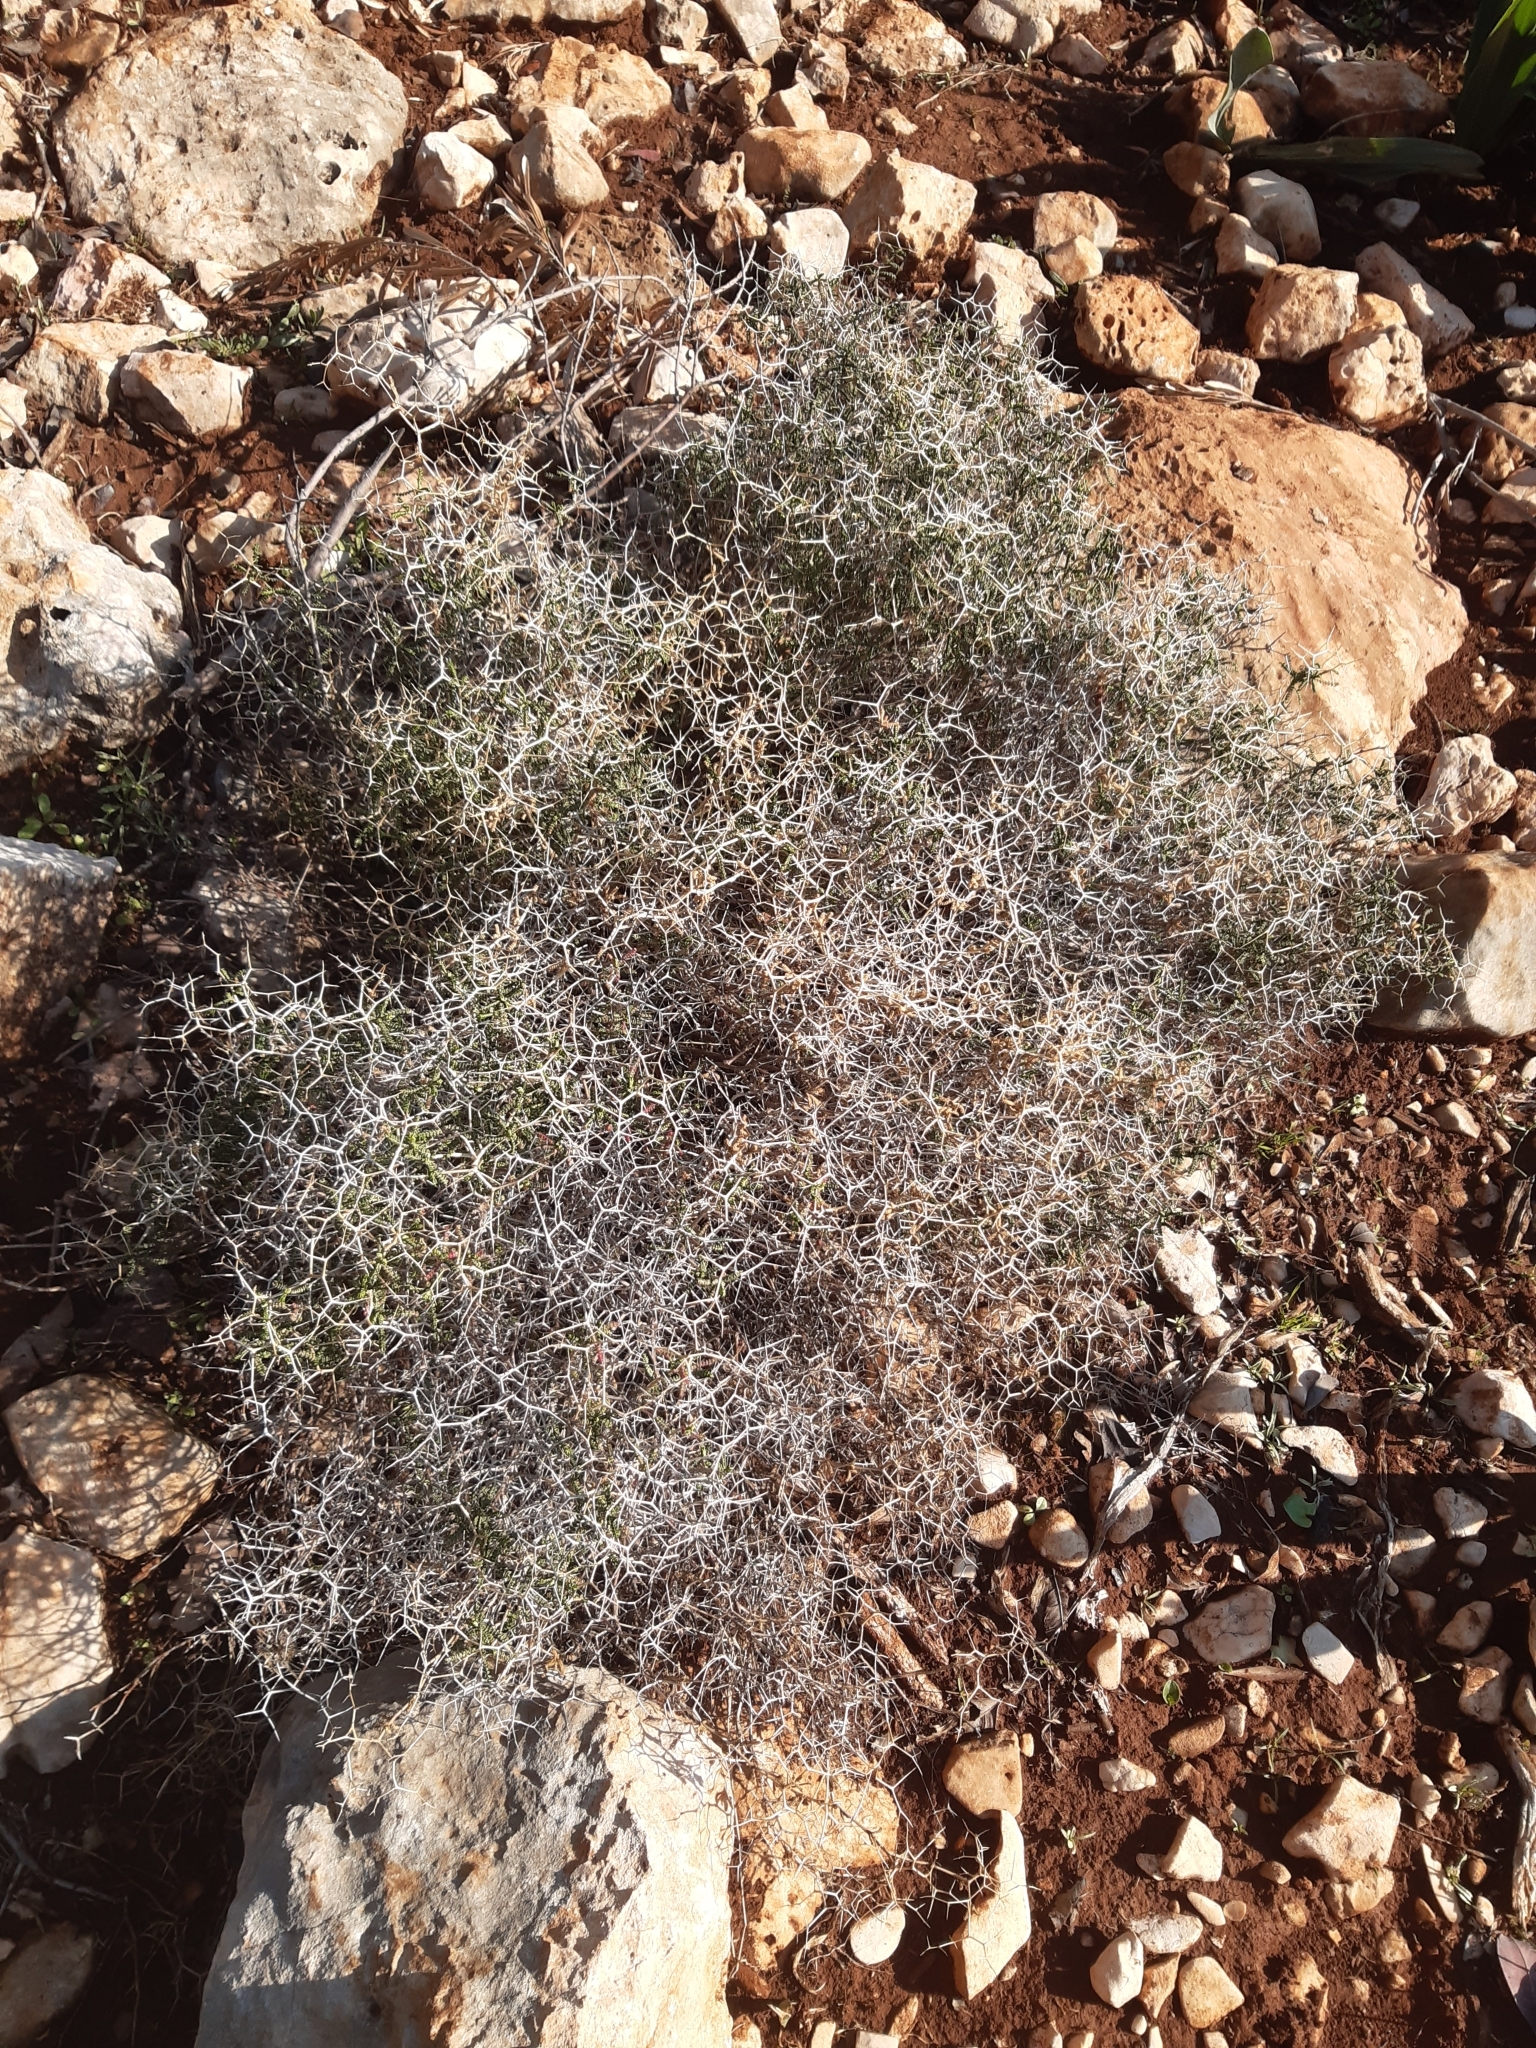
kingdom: Plantae
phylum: Tracheophyta
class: Magnoliopsida
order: Rosales
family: Rosaceae
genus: Sarcopoterium
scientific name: Sarcopoterium spinosum
